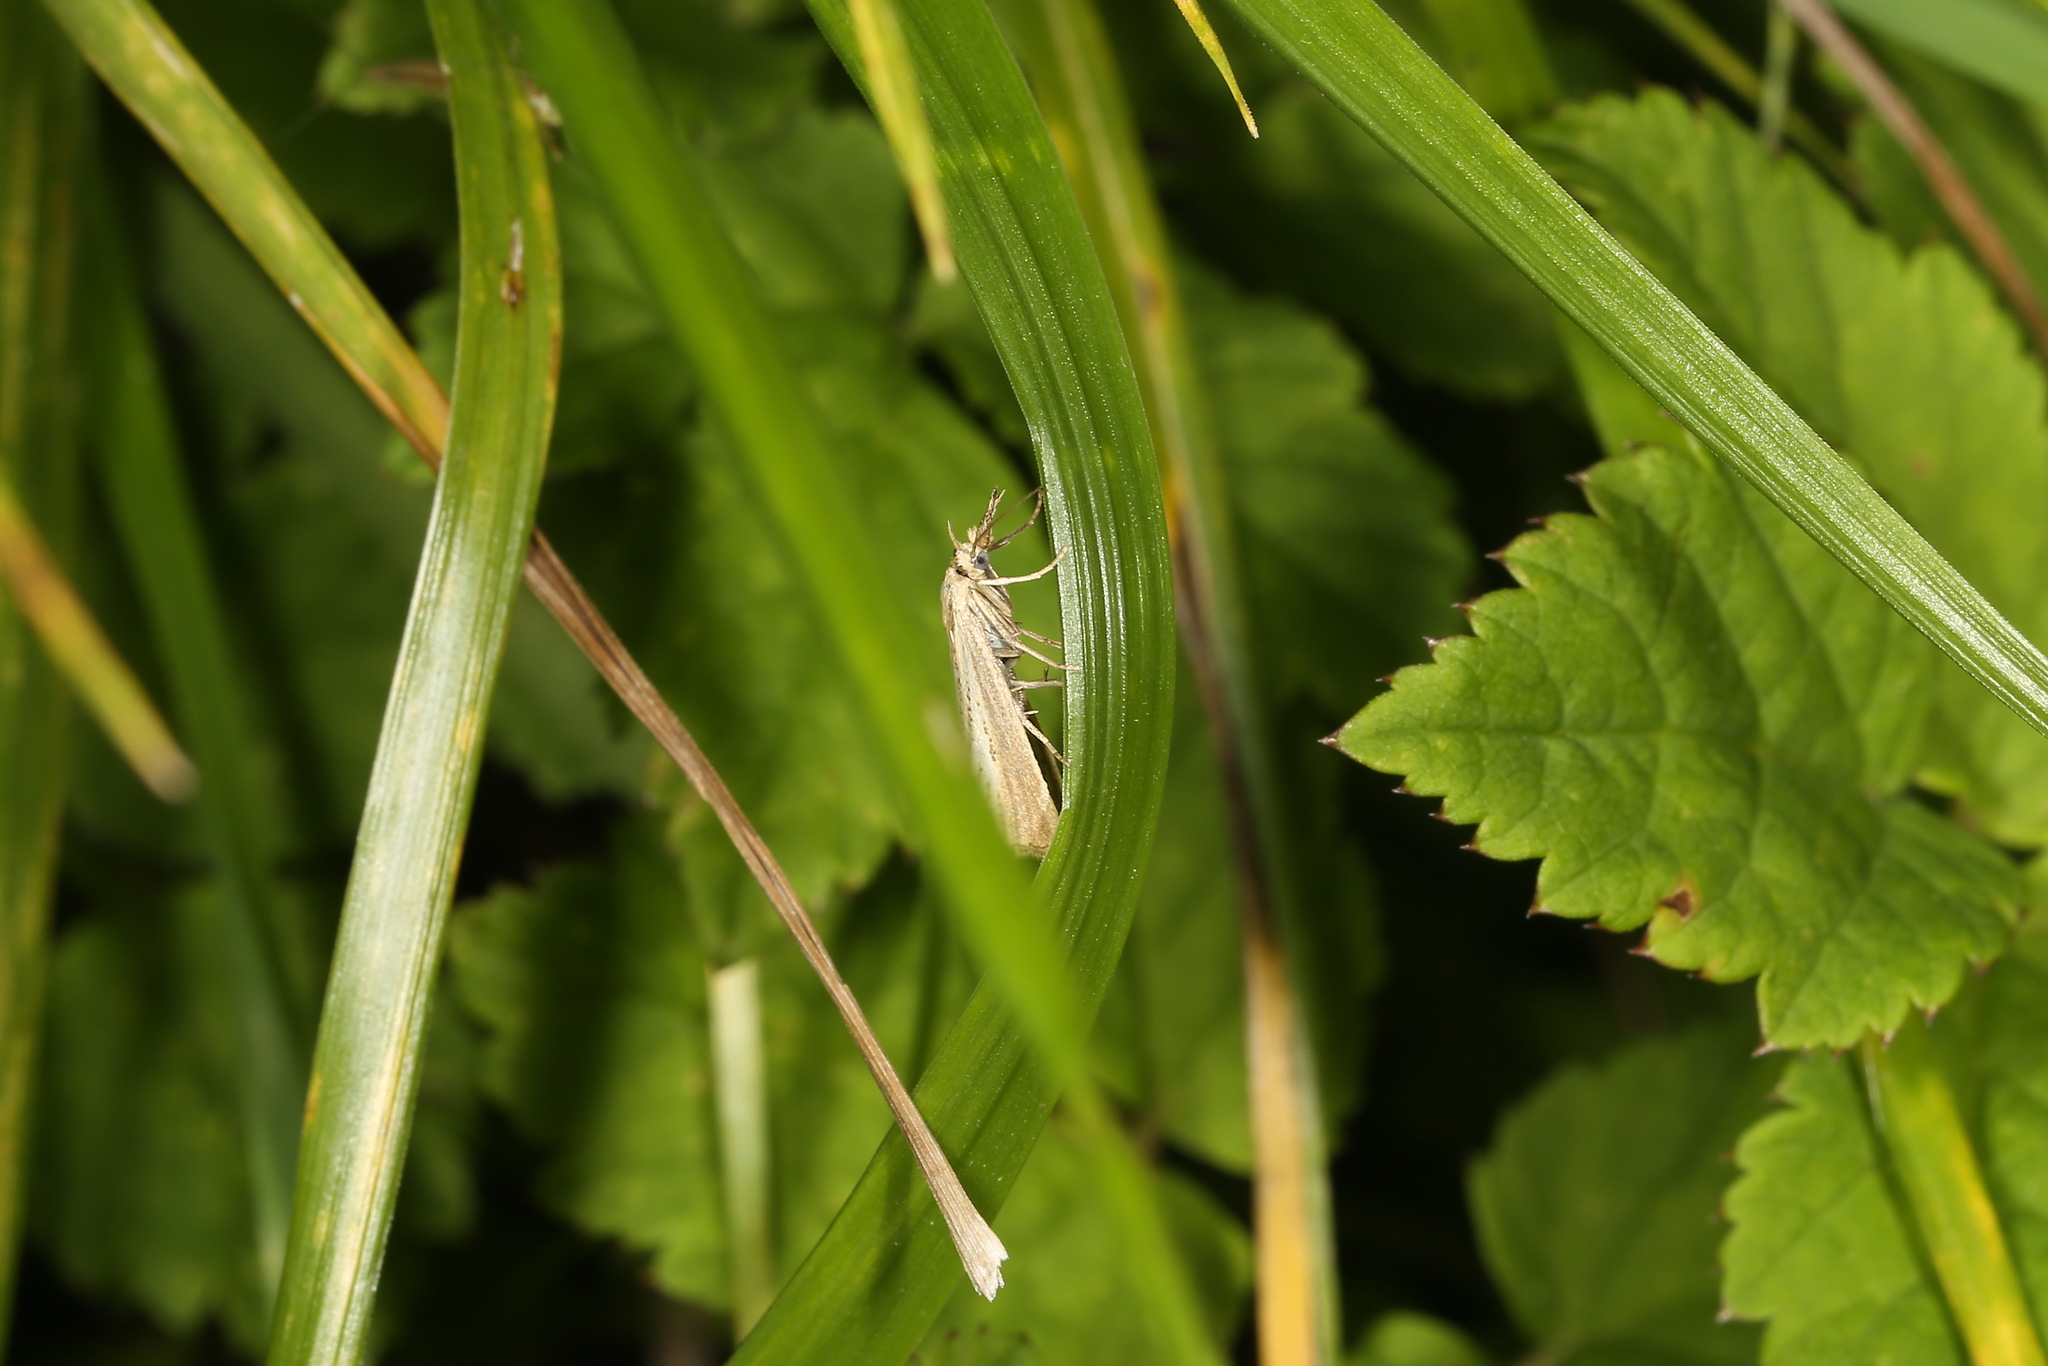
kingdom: Animalia
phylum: Arthropoda
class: Insecta
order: Lepidoptera
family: Crambidae
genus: Agriphila
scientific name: Agriphila straminella
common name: Straw grass-veneer
